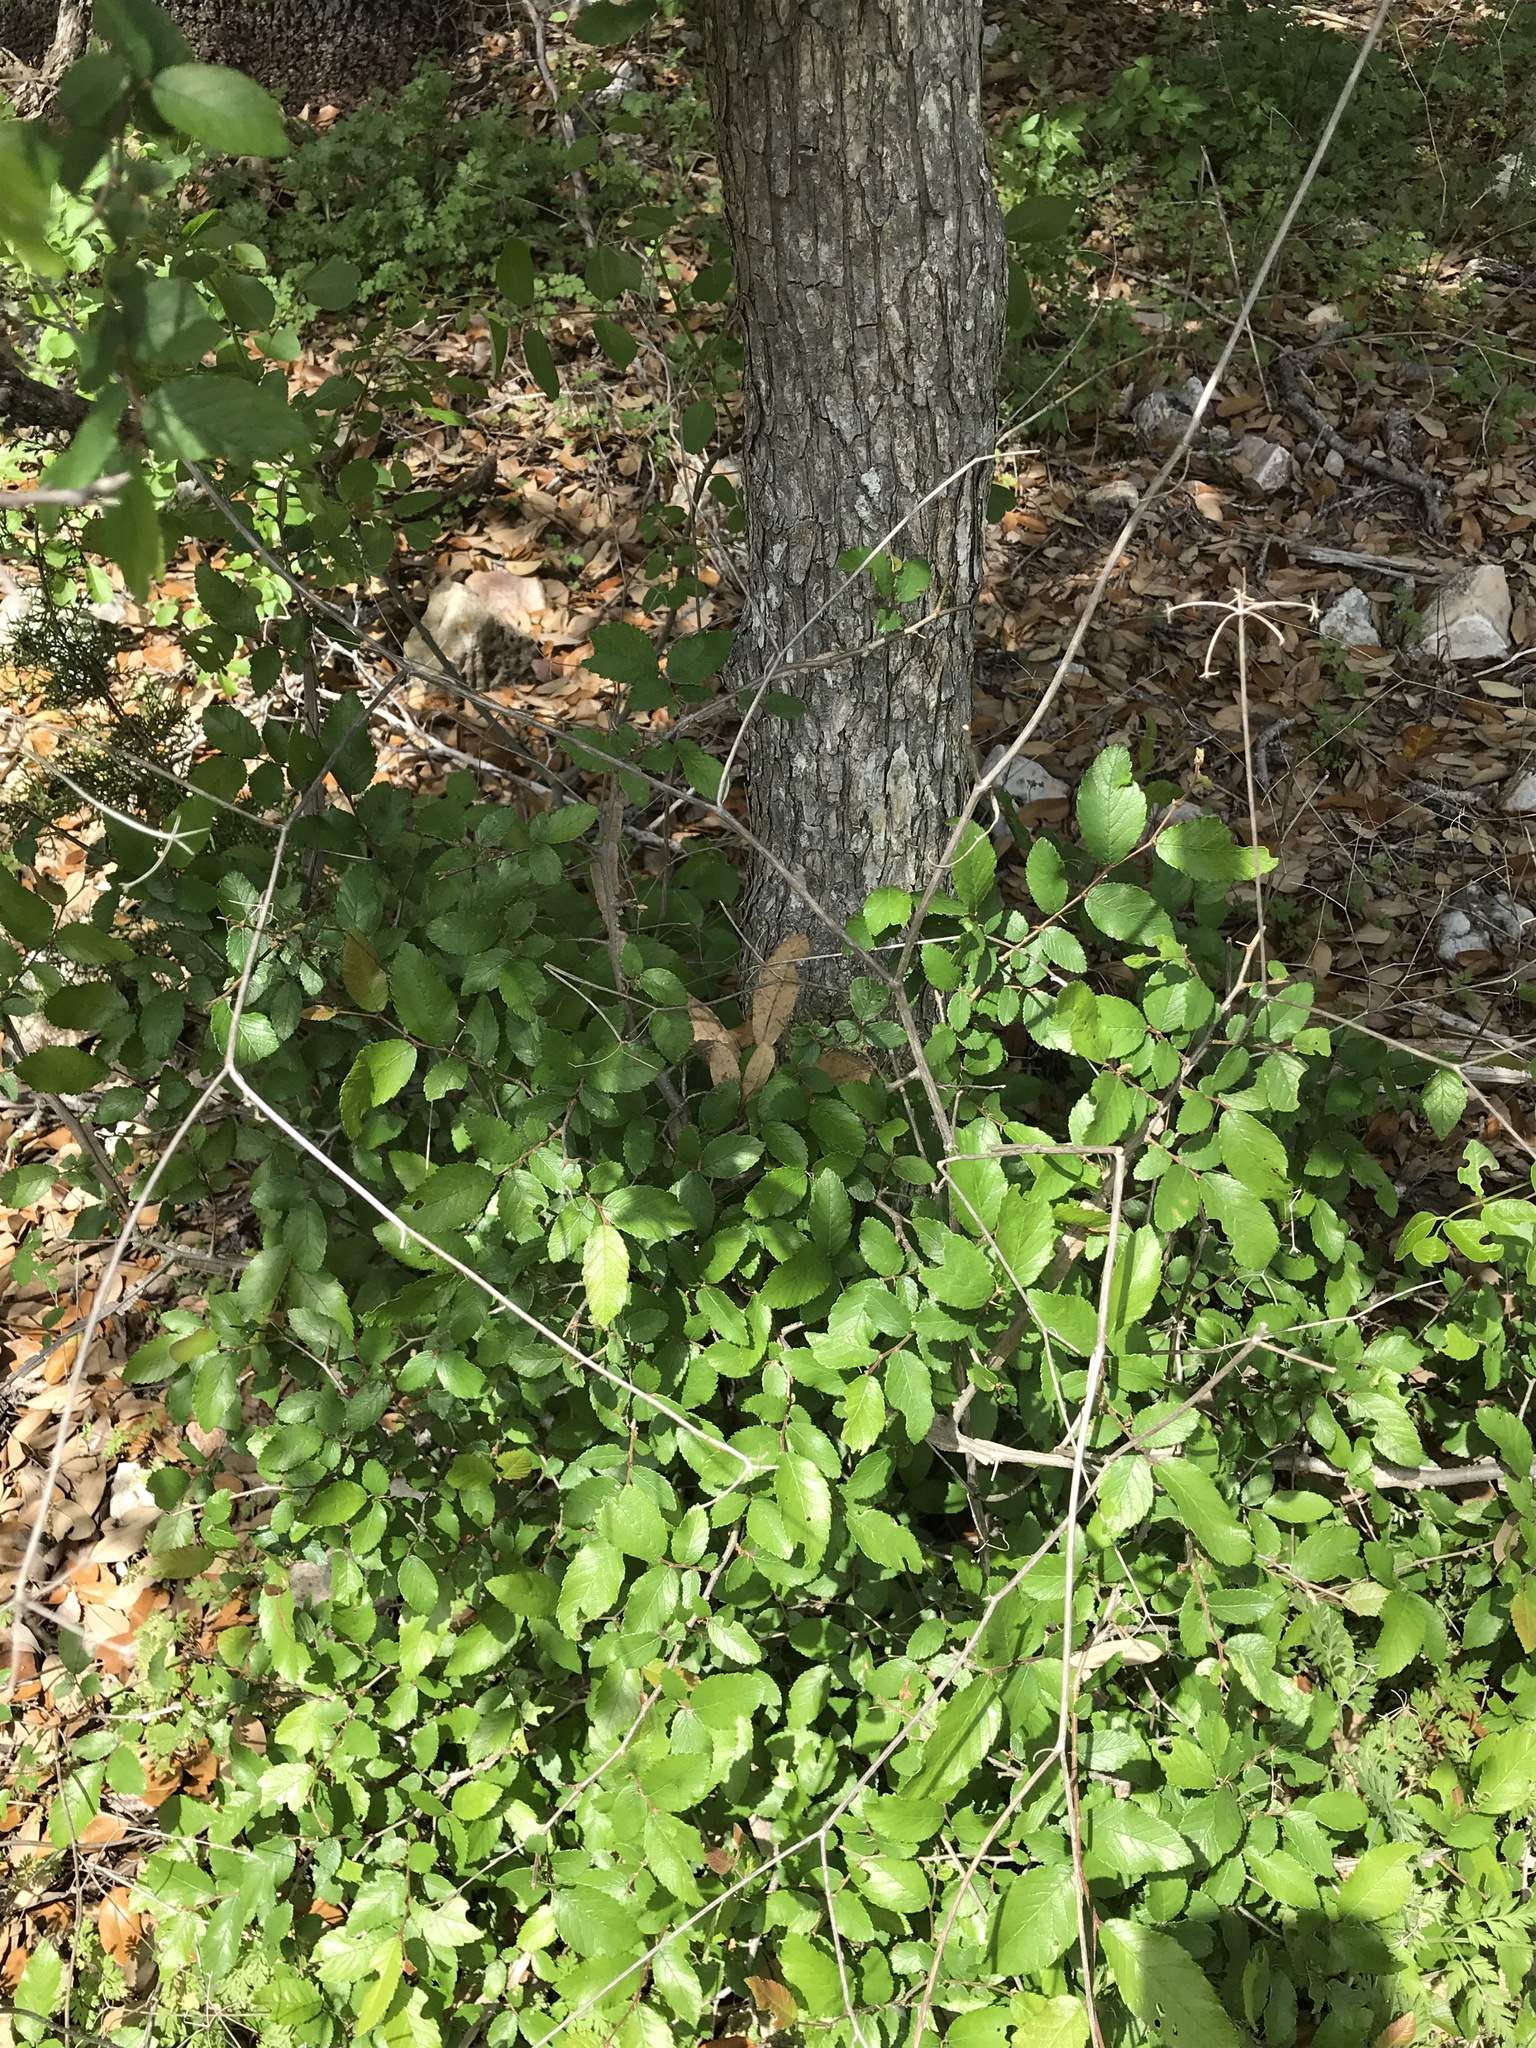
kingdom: Plantae
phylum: Tracheophyta
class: Magnoliopsida
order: Rosales
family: Ulmaceae
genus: Ulmus
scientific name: Ulmus crassifolia
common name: Basket elm
